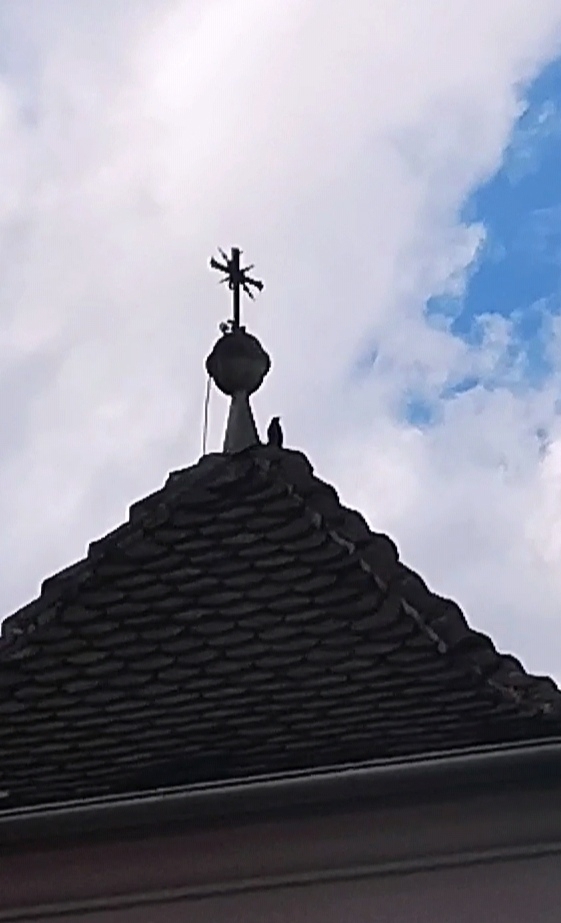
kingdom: Animalia
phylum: Chordata
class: Aves
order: Passeriformes
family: Turdidae
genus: Turdus
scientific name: Turdus merula
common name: Common blackbird
